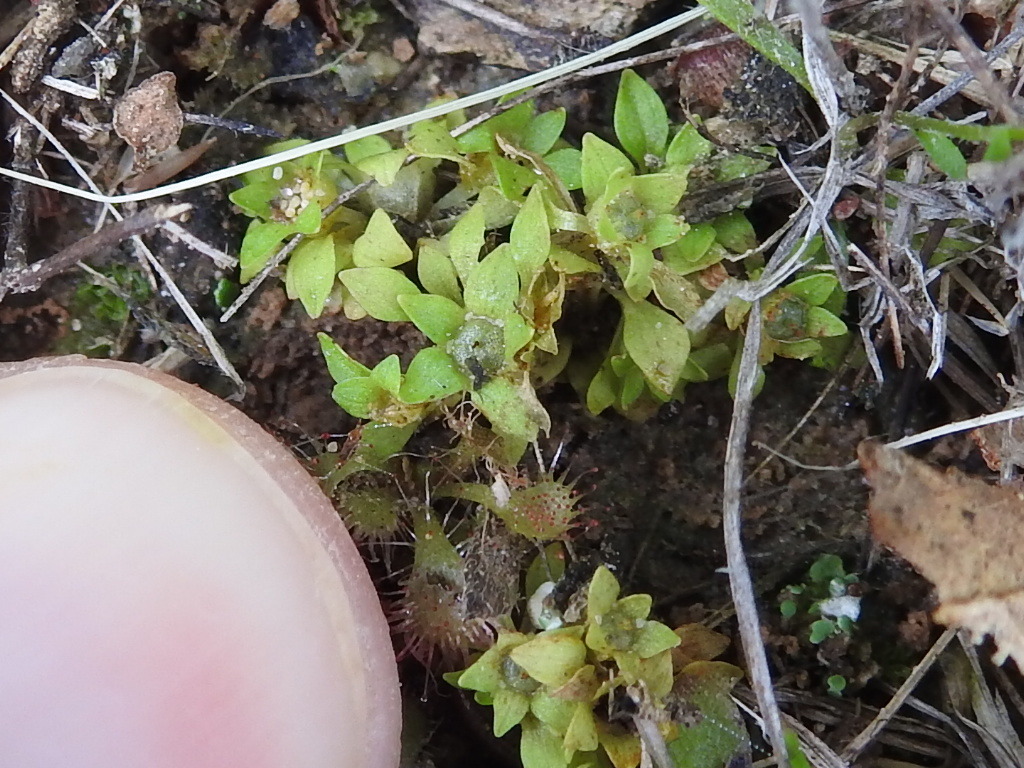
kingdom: Plantae
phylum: Tracheophyta
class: Magnoliopsida
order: Celastrales
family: Parnassiaceae
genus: Lepuropetalon
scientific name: Lepuropetalon spathulatum
